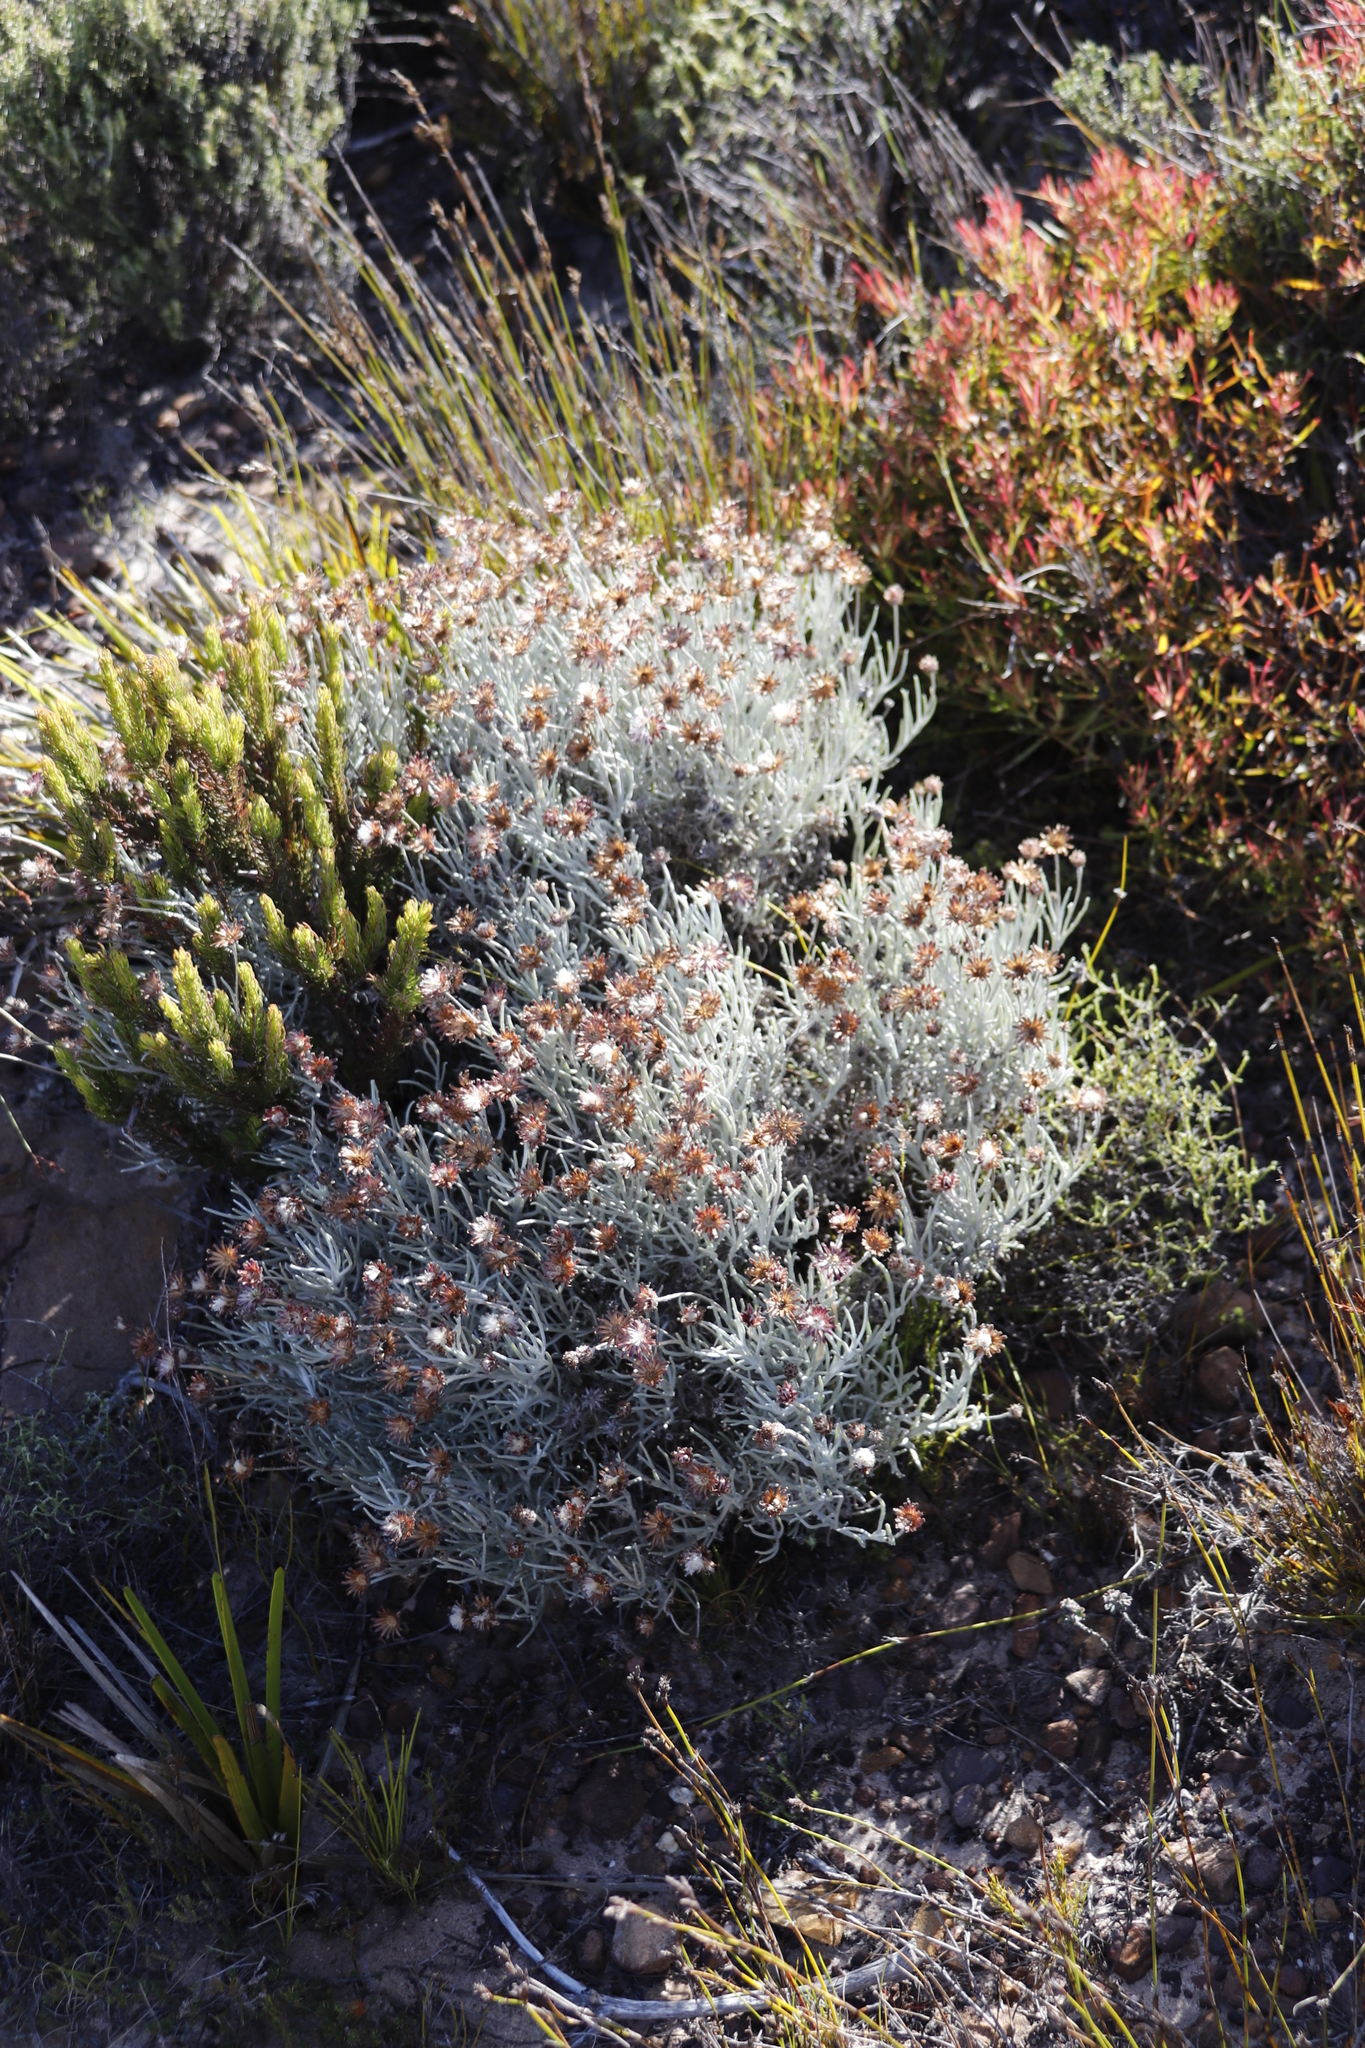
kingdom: Plantae
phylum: Tracheophyta
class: Magnoliopsida
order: Asterales
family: Asteraceae
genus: Syncarpha
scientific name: Syncarpha gnaphaloides
